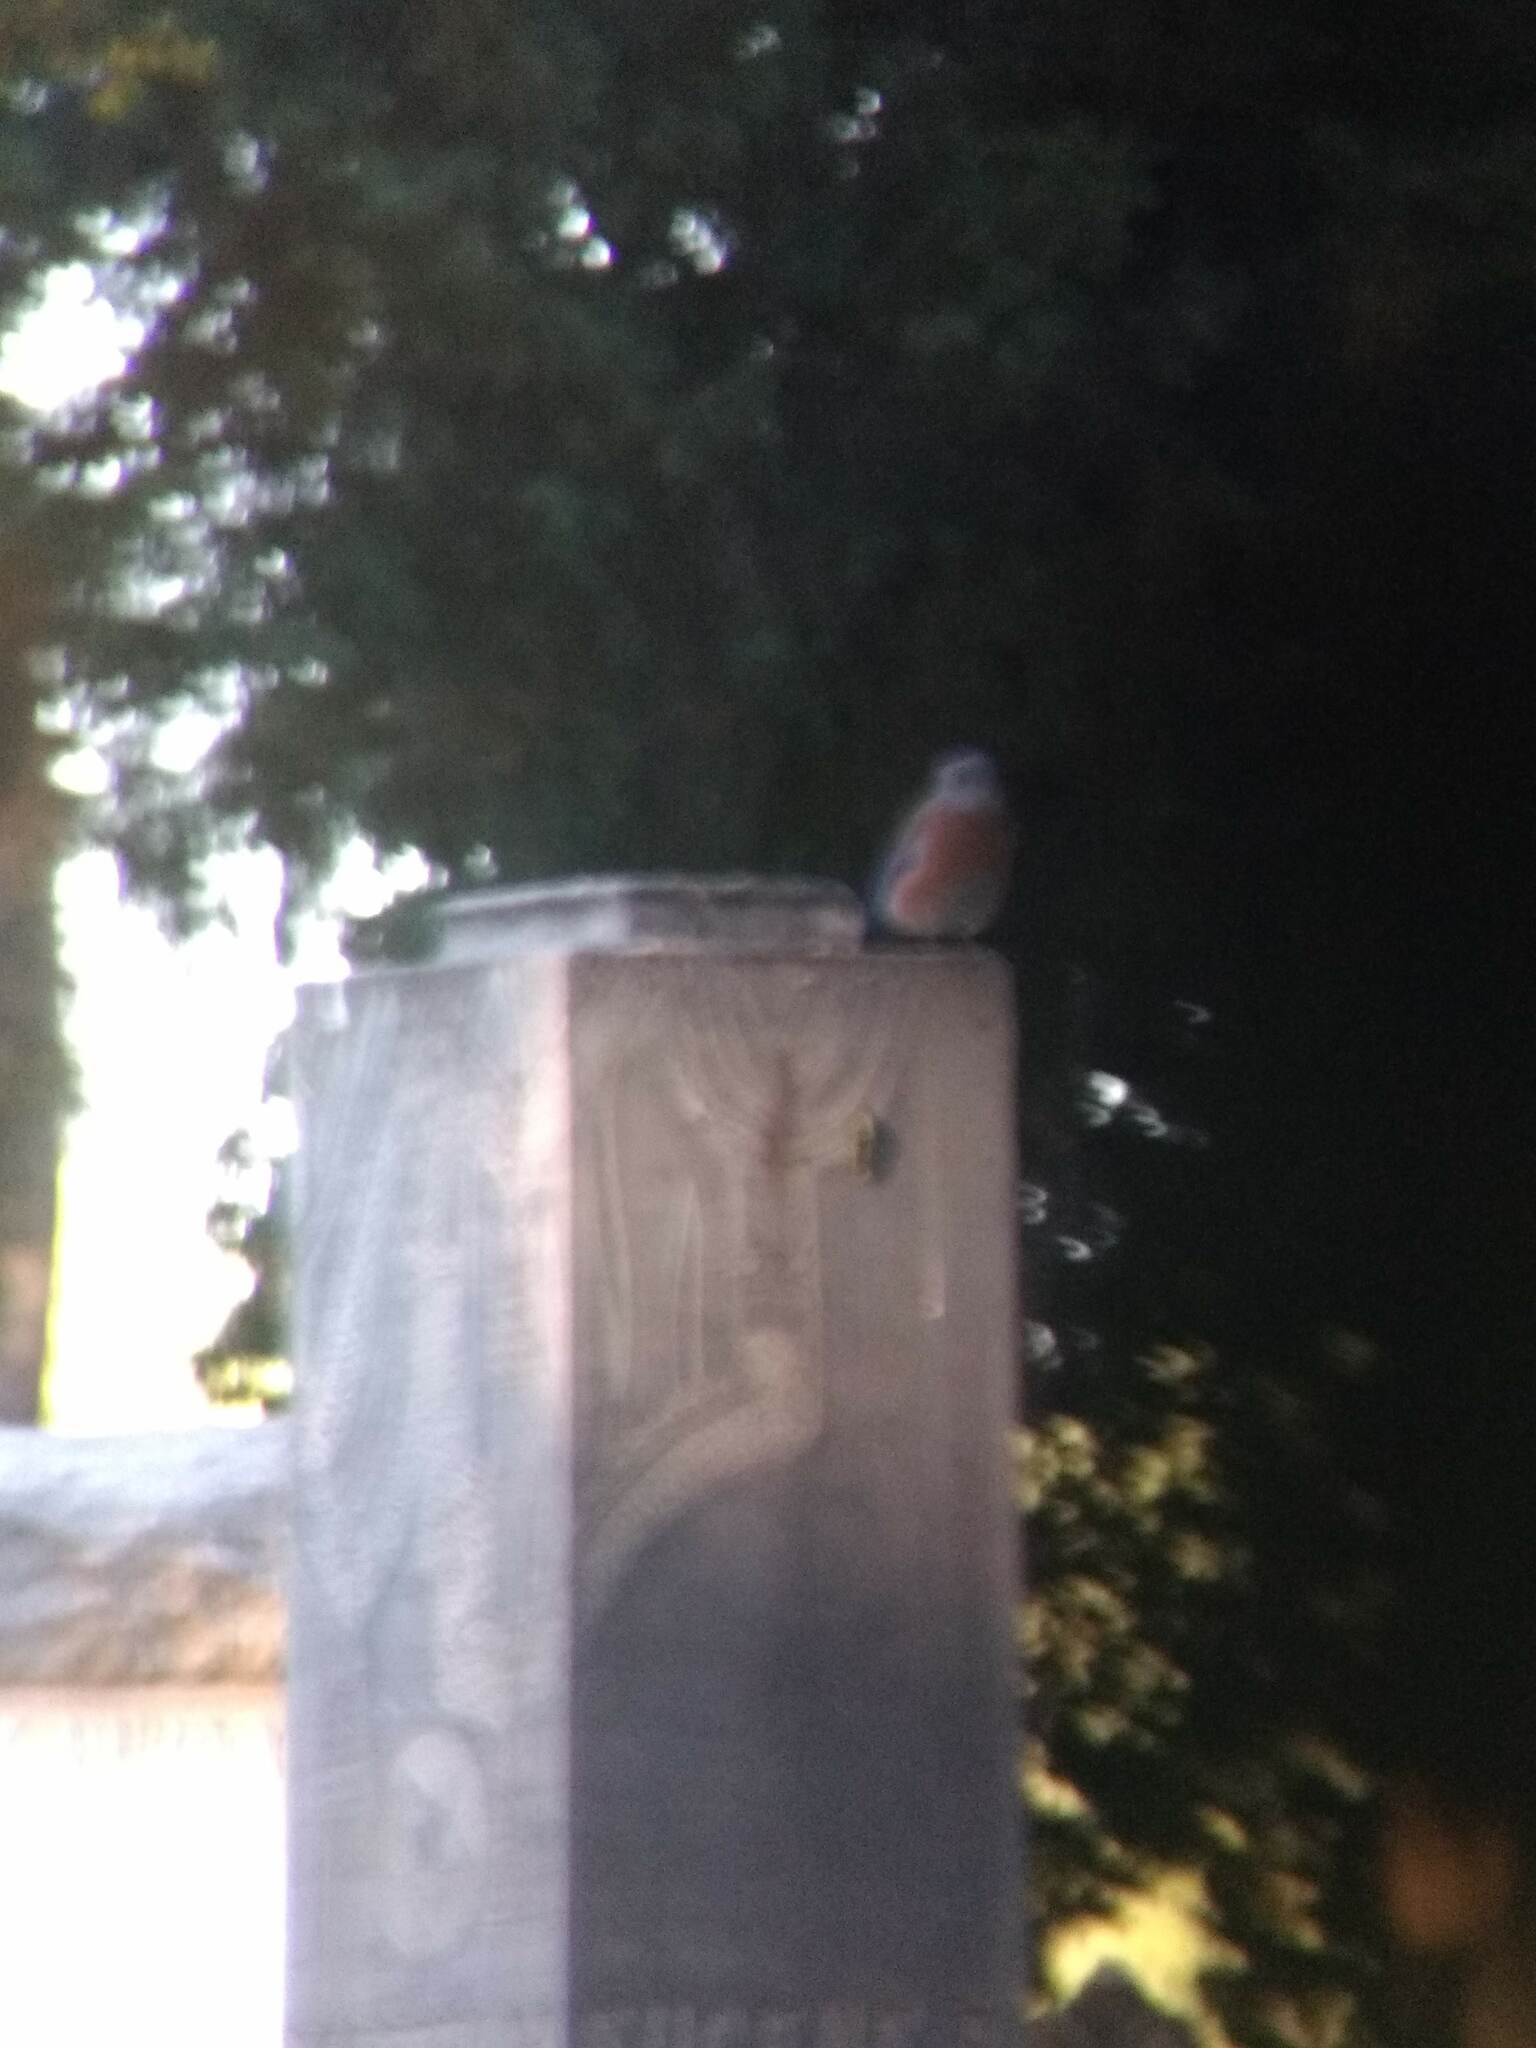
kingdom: Animalia
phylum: Chordata
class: Aves
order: Passeriformes
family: Turdidae
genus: Sialia
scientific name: Sialia mexicana
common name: Western bluebird
